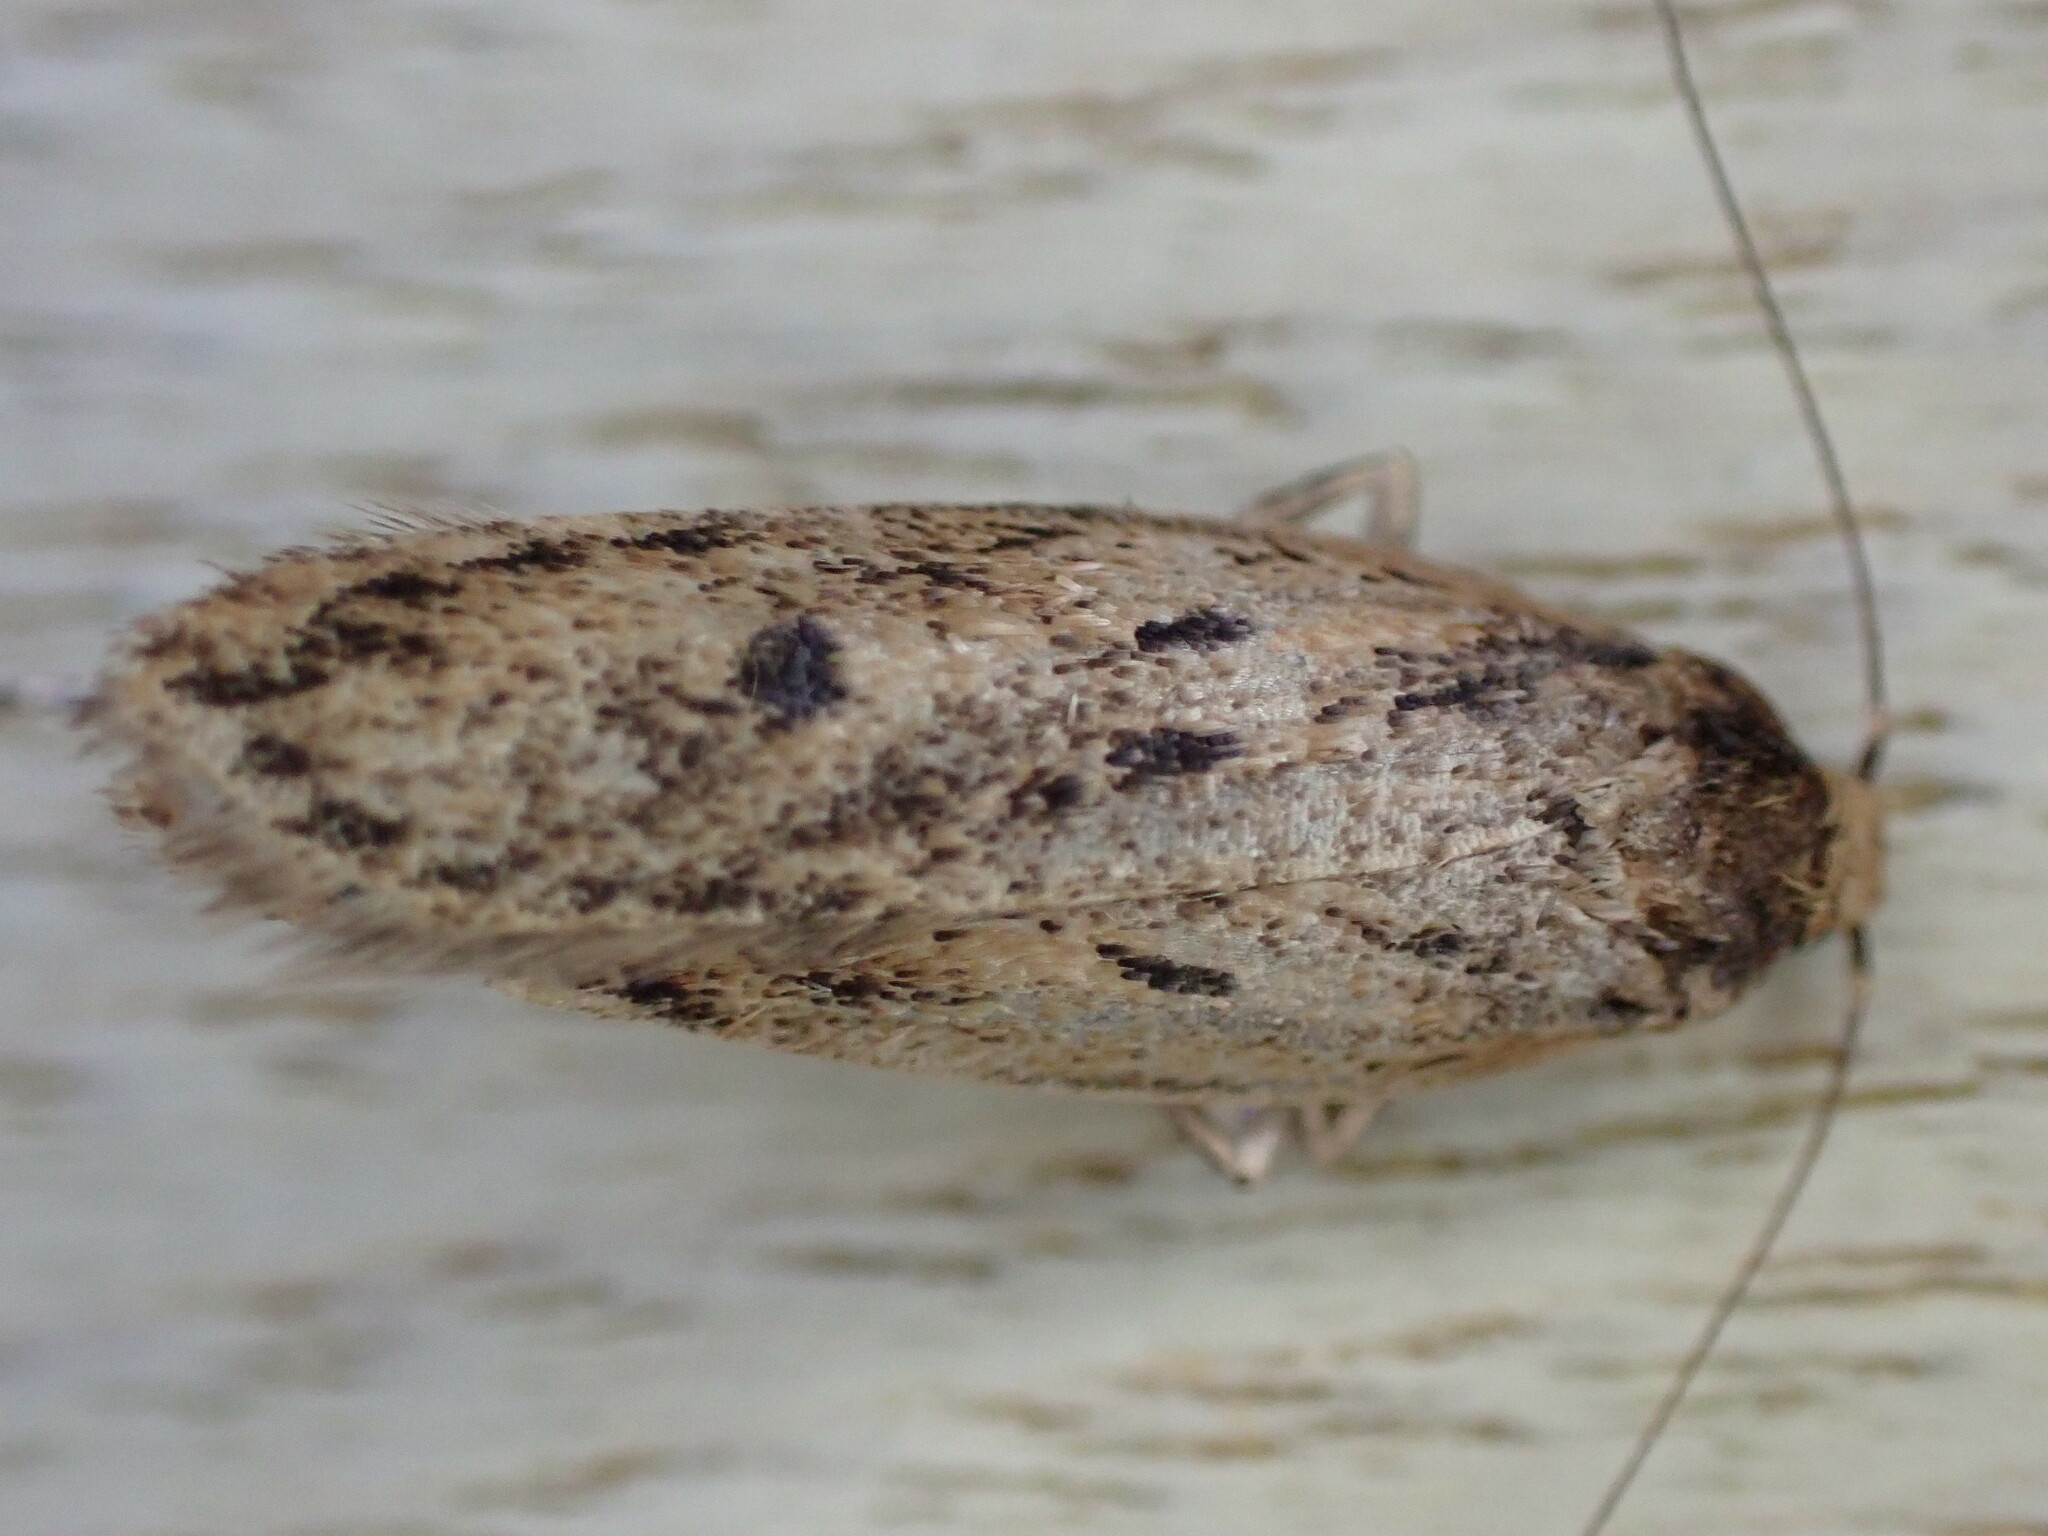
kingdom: Animalia
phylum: Arthropoda
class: Insecta
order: Lepidoptera
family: Oecophoridae
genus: Hofmannophila
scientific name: Hofmannophila pseudospretella
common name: Brown house moth
